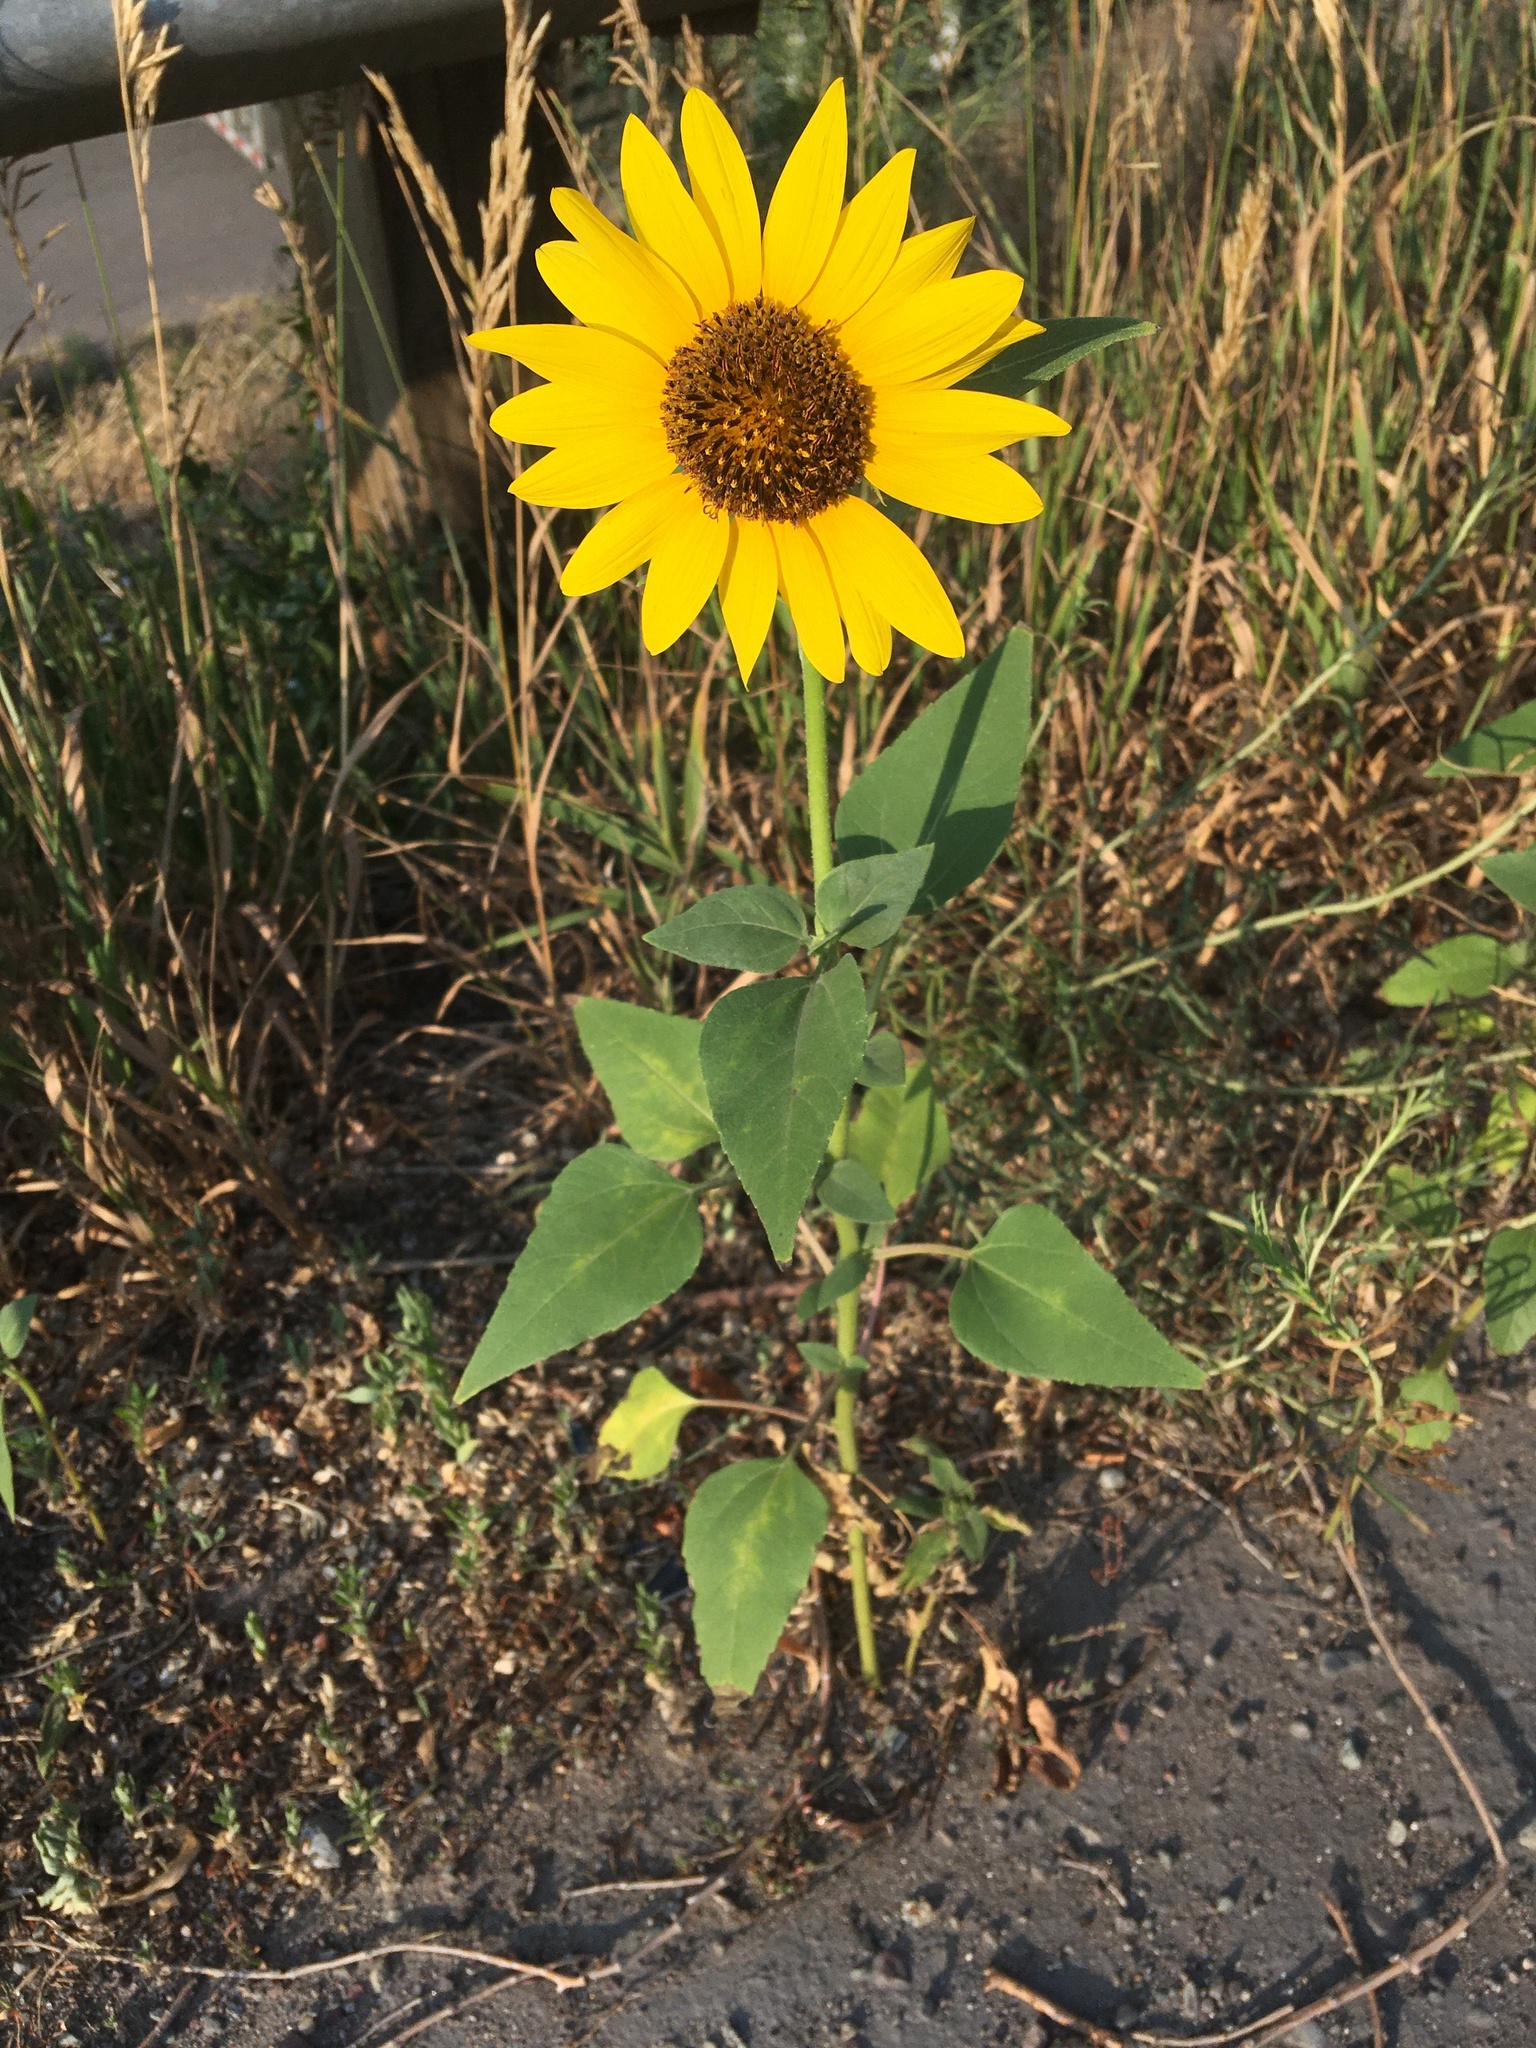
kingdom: Plantae
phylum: Tracheophyta
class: Magnoliopsida
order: Asterales
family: Asteraceae
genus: Helianthus
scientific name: Helianthus annuus
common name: Sunflower
